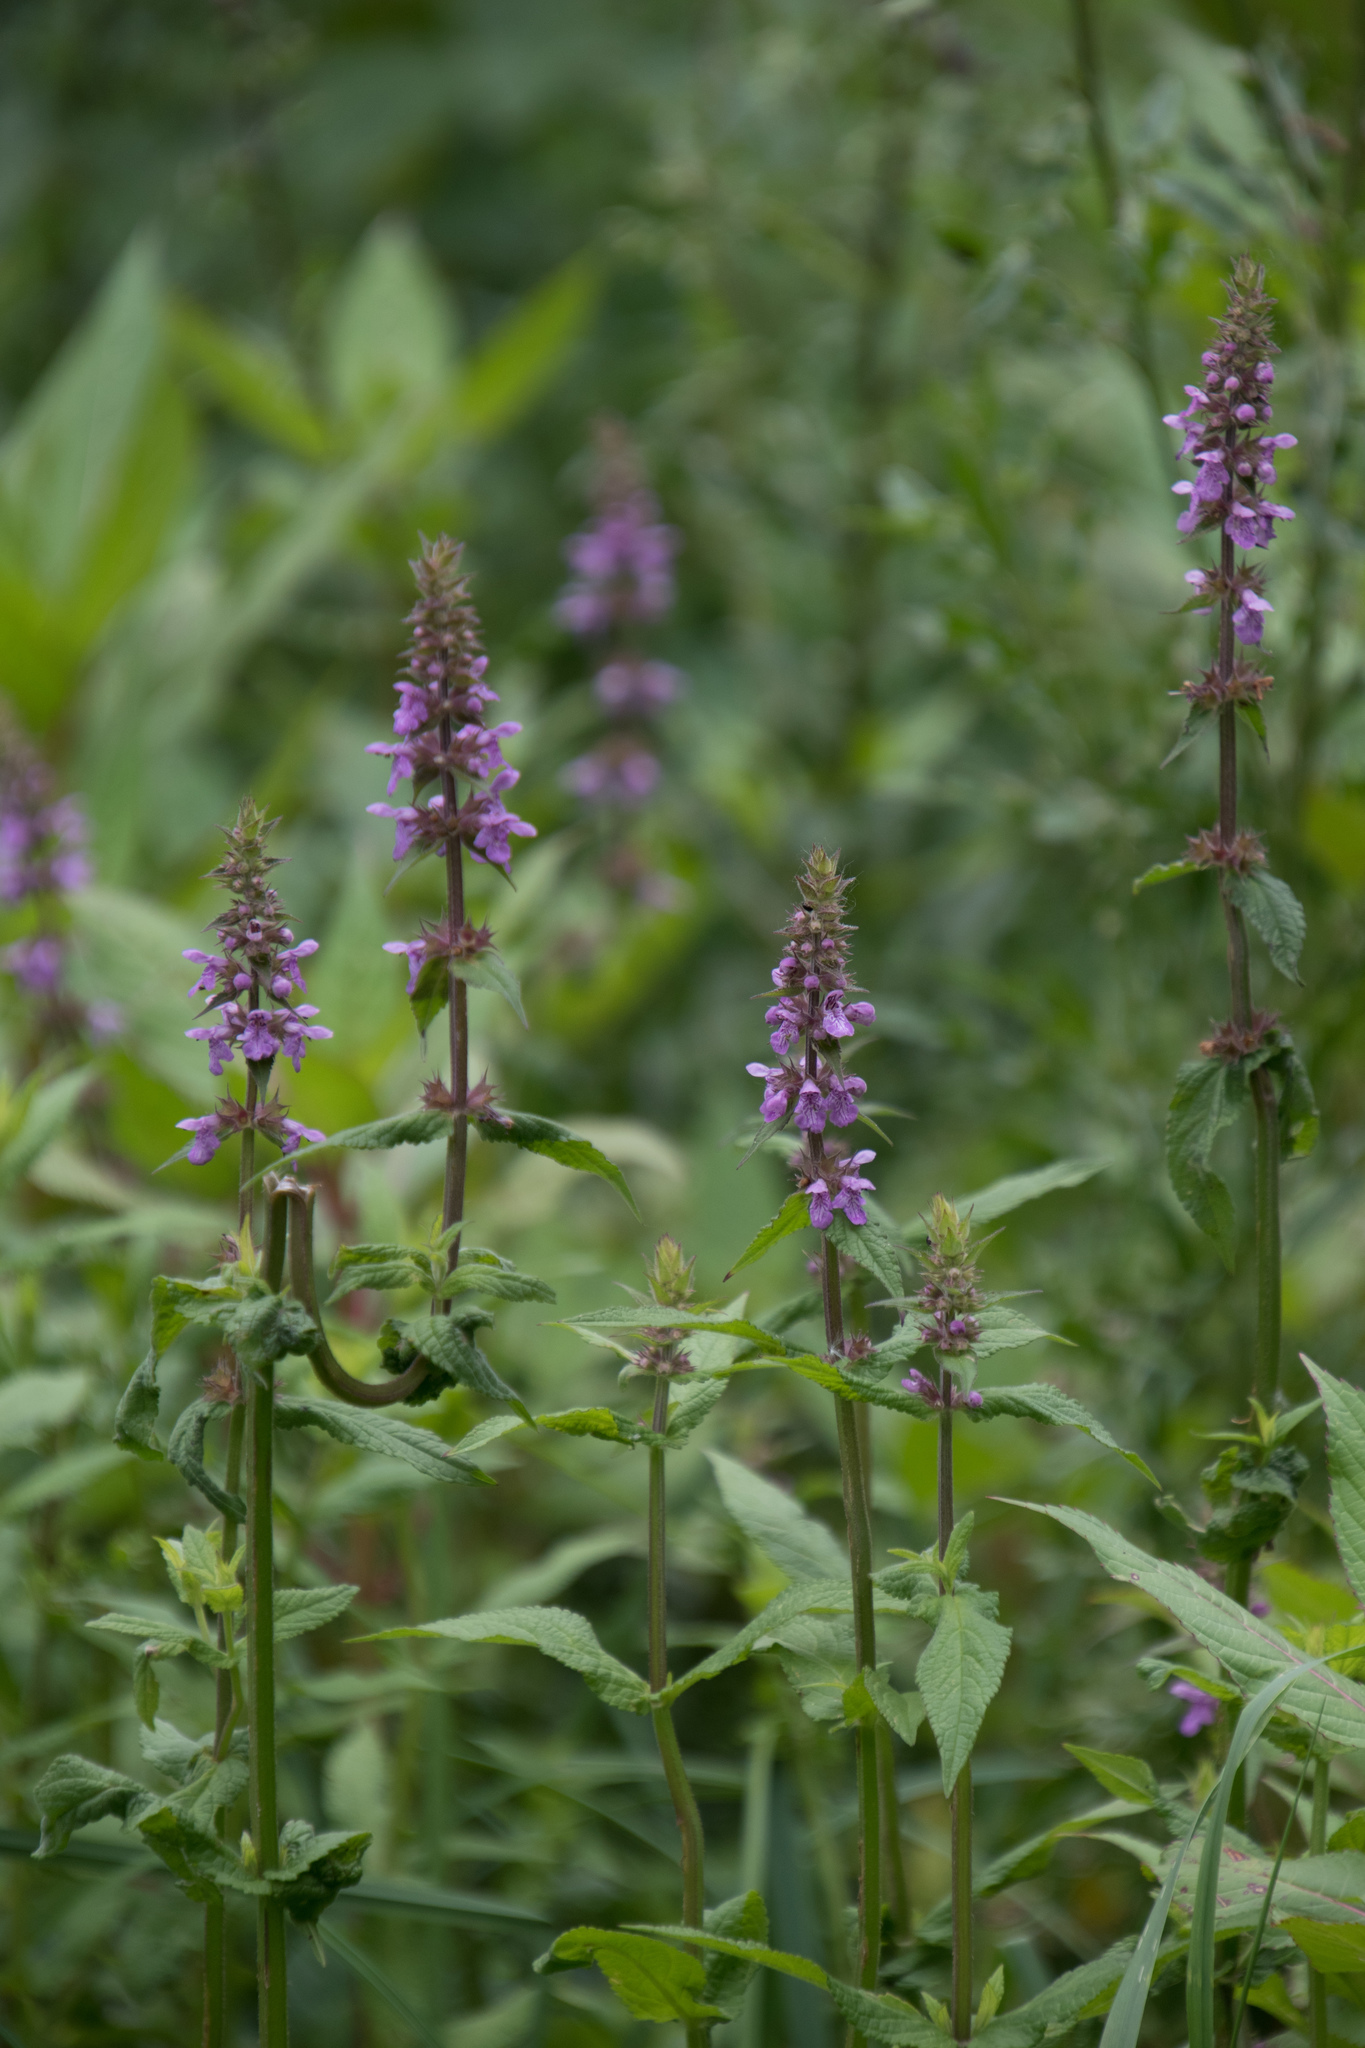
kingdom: Plantae
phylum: Tracheophyta
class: Magnoliopsida
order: Lamiales
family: Lamiaceae
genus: Stachys
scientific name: Stachys palustris
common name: Marsh woundwort
